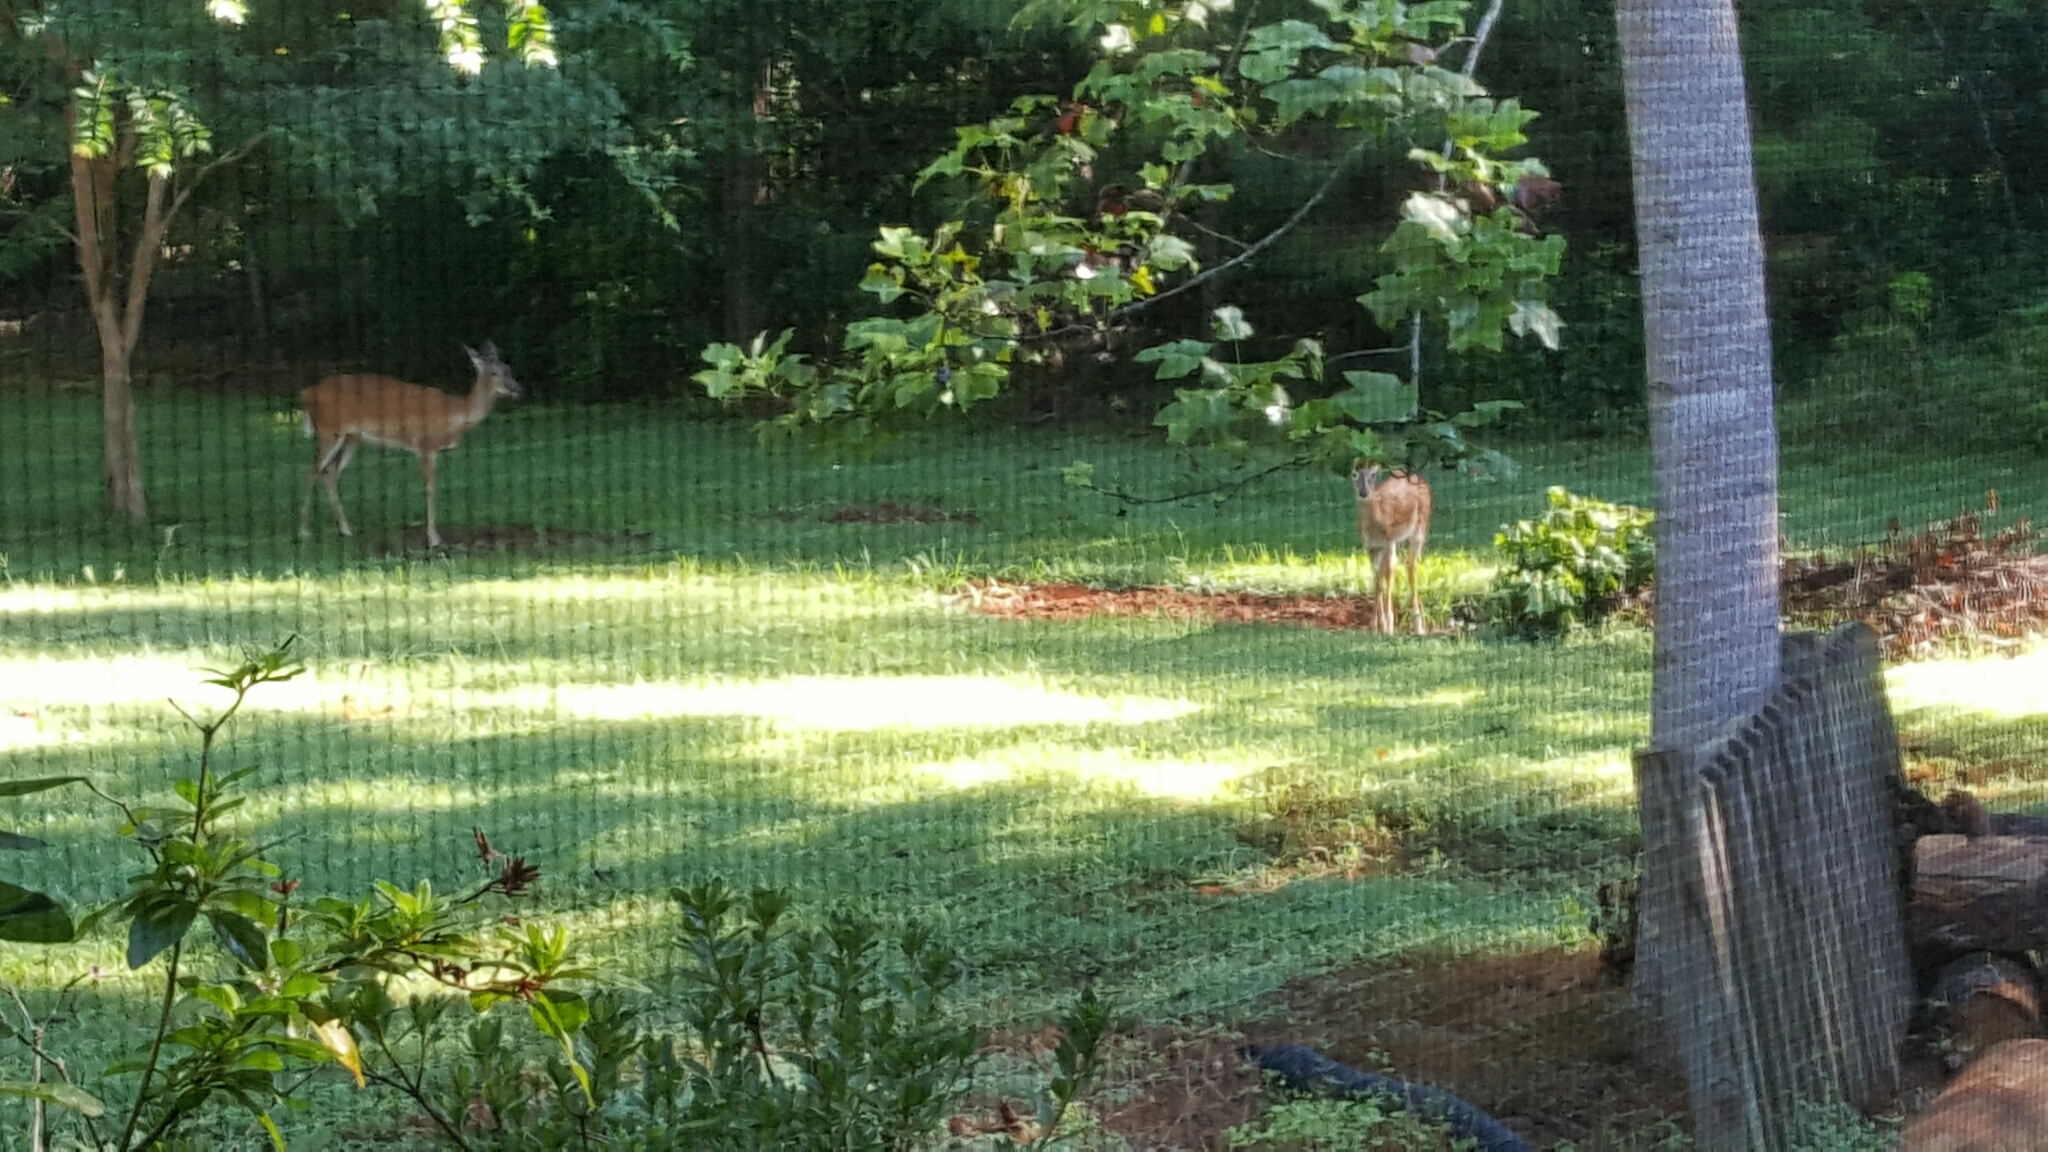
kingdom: Animalia
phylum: Chordata
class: Mammalia
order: Artiodactyla
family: Cervidae
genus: Odocoileus
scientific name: Odocoileus virginianus
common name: White-tailed deer
